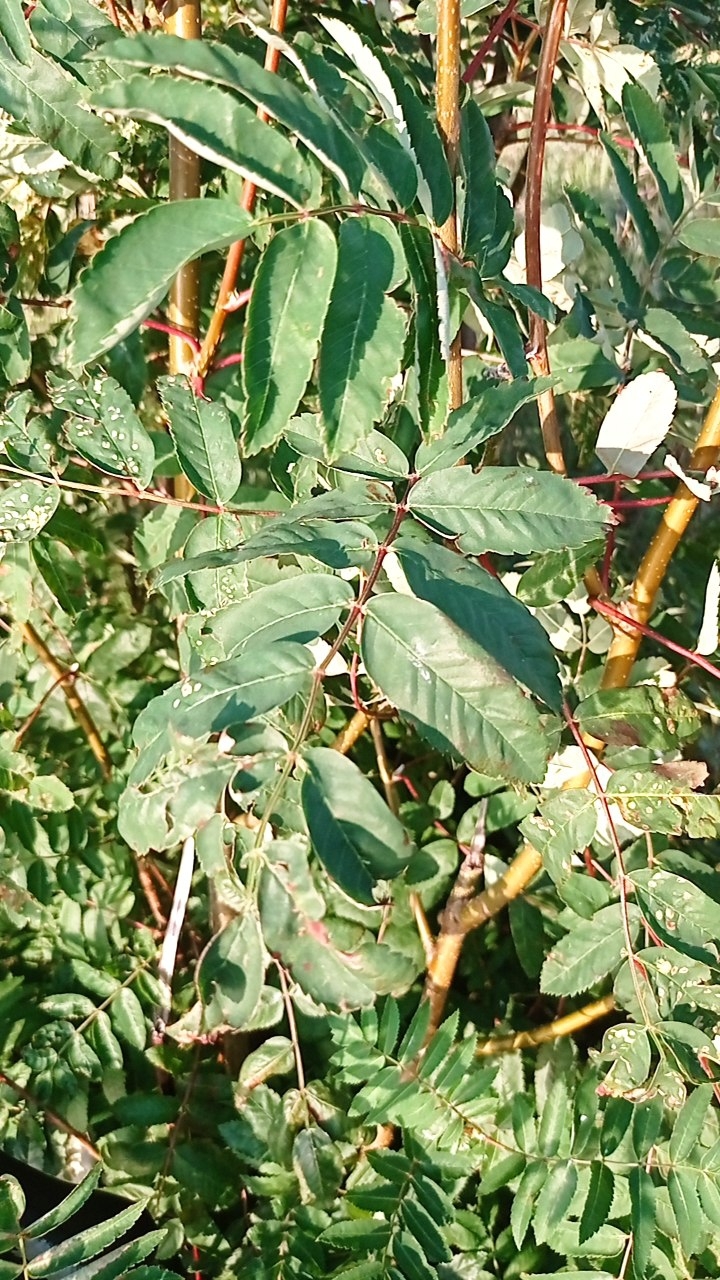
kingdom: Plantae
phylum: Tracheophyta
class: Magnoliopsida
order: Rosales
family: Rosaceae
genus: Sorbus
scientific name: Sorbus aucuparia
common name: Rowan
